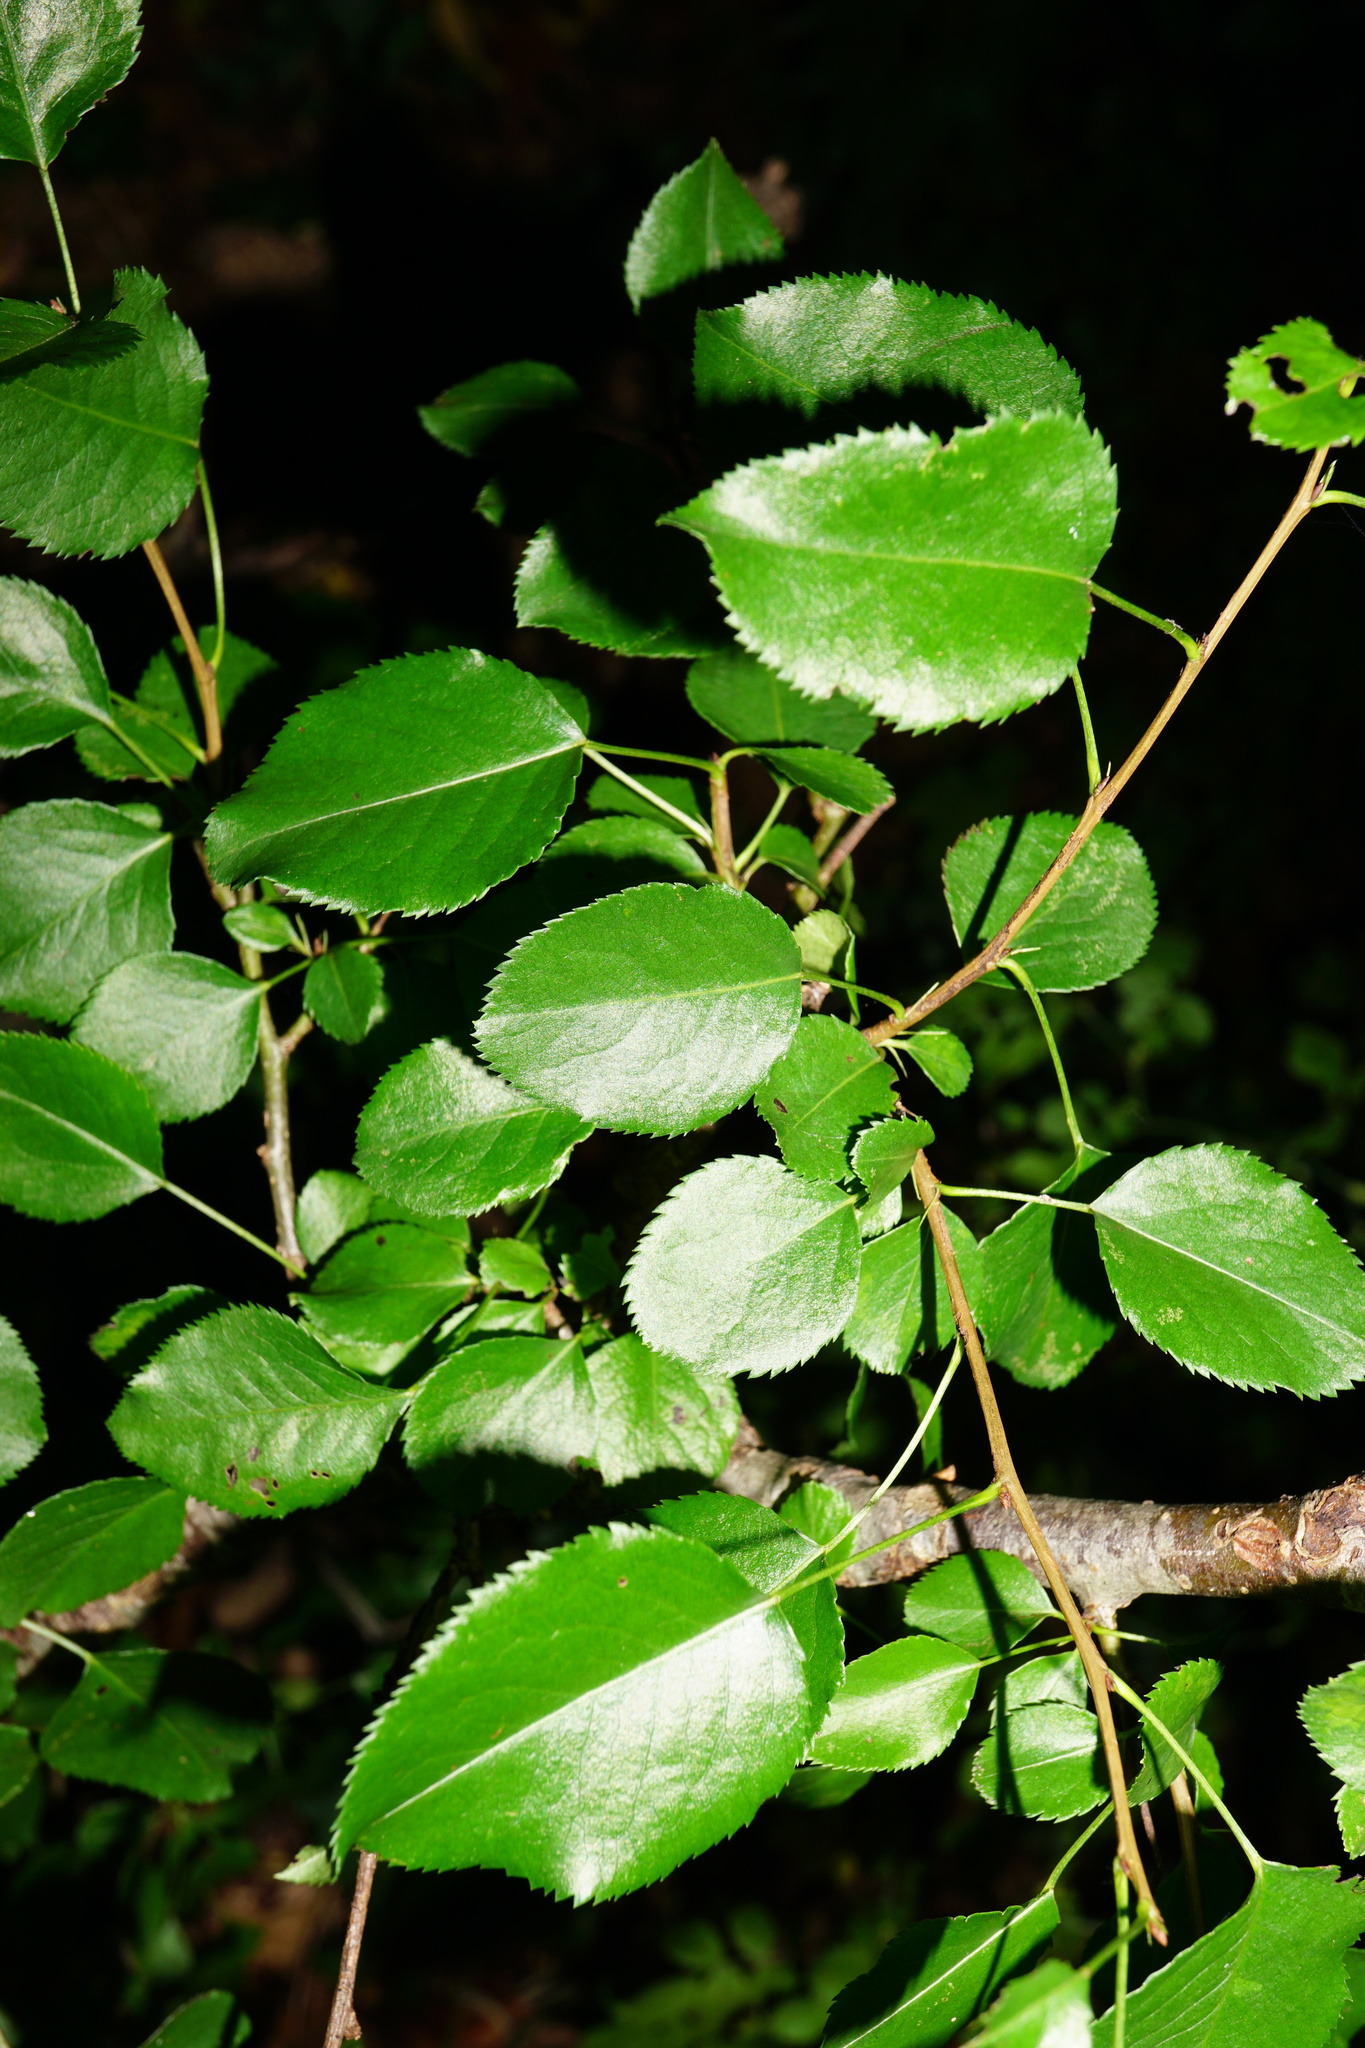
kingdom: Plantae
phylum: Tracheophyta
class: Magnoliopsida
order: Rosales
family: Rosaceae
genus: Pyrus
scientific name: Pyrus
